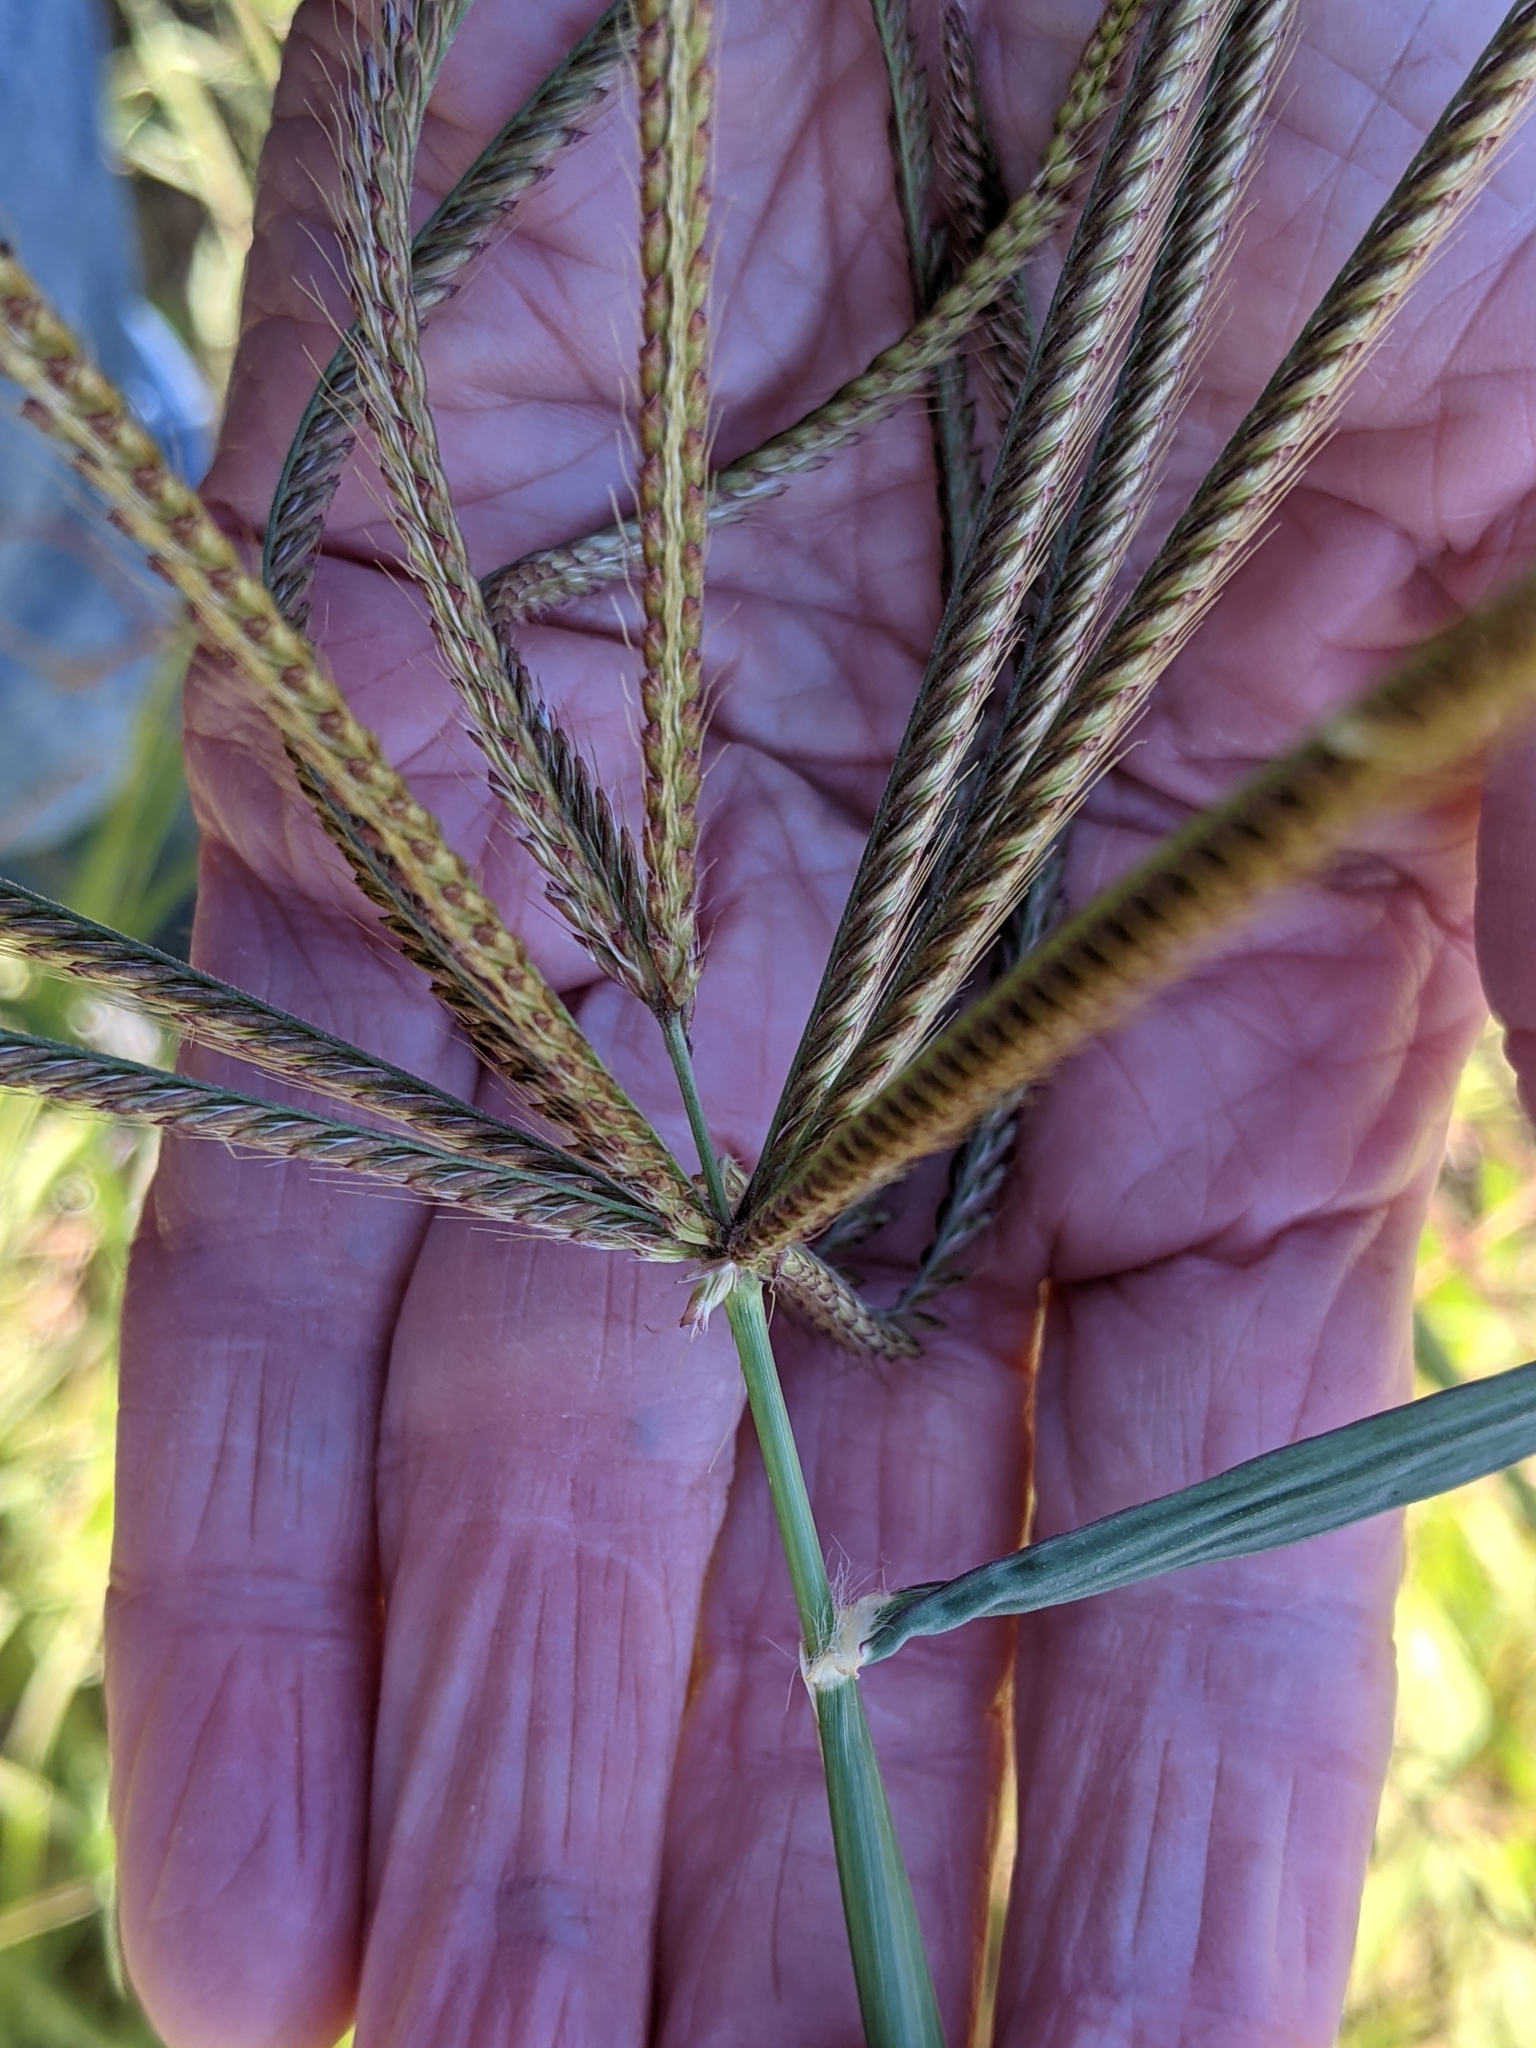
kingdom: Plantae
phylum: Tracheophyta
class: Liliopsida
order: Poales
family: Poaceae
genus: Chloris
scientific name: Chloris gayana
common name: Rhodes grass
